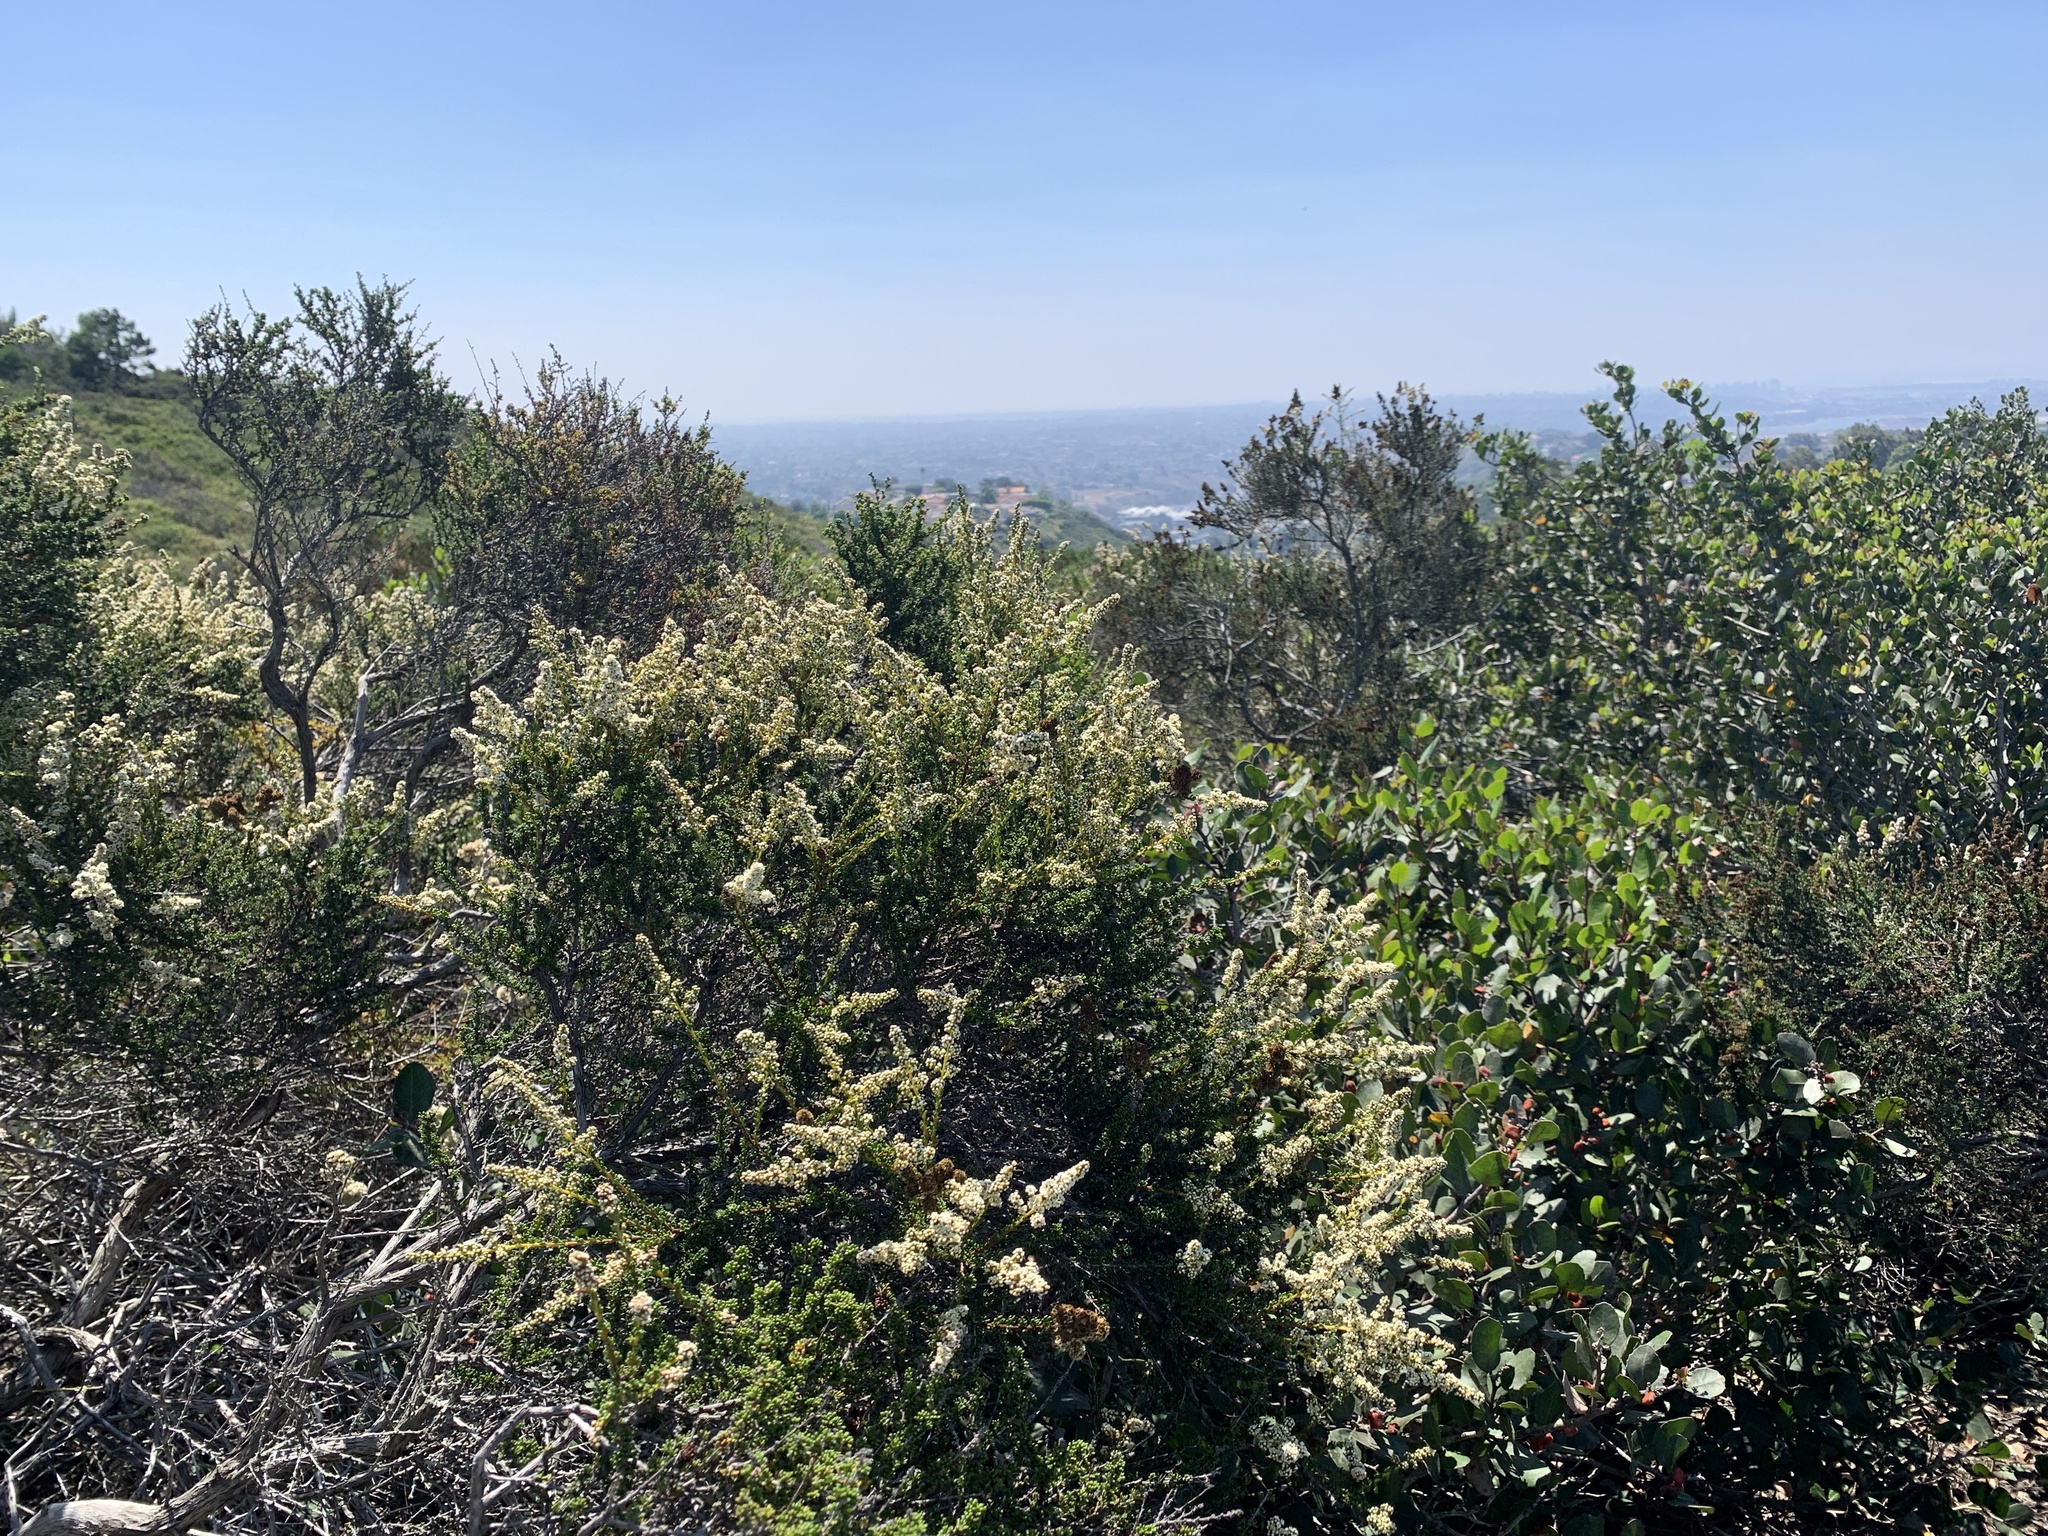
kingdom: Plantae
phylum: Tracheophyta
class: Magnoliopsida
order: Rosales
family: Rosaceae
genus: Adenostoma
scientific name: Adenostoma fasciculatum
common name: Chamise
